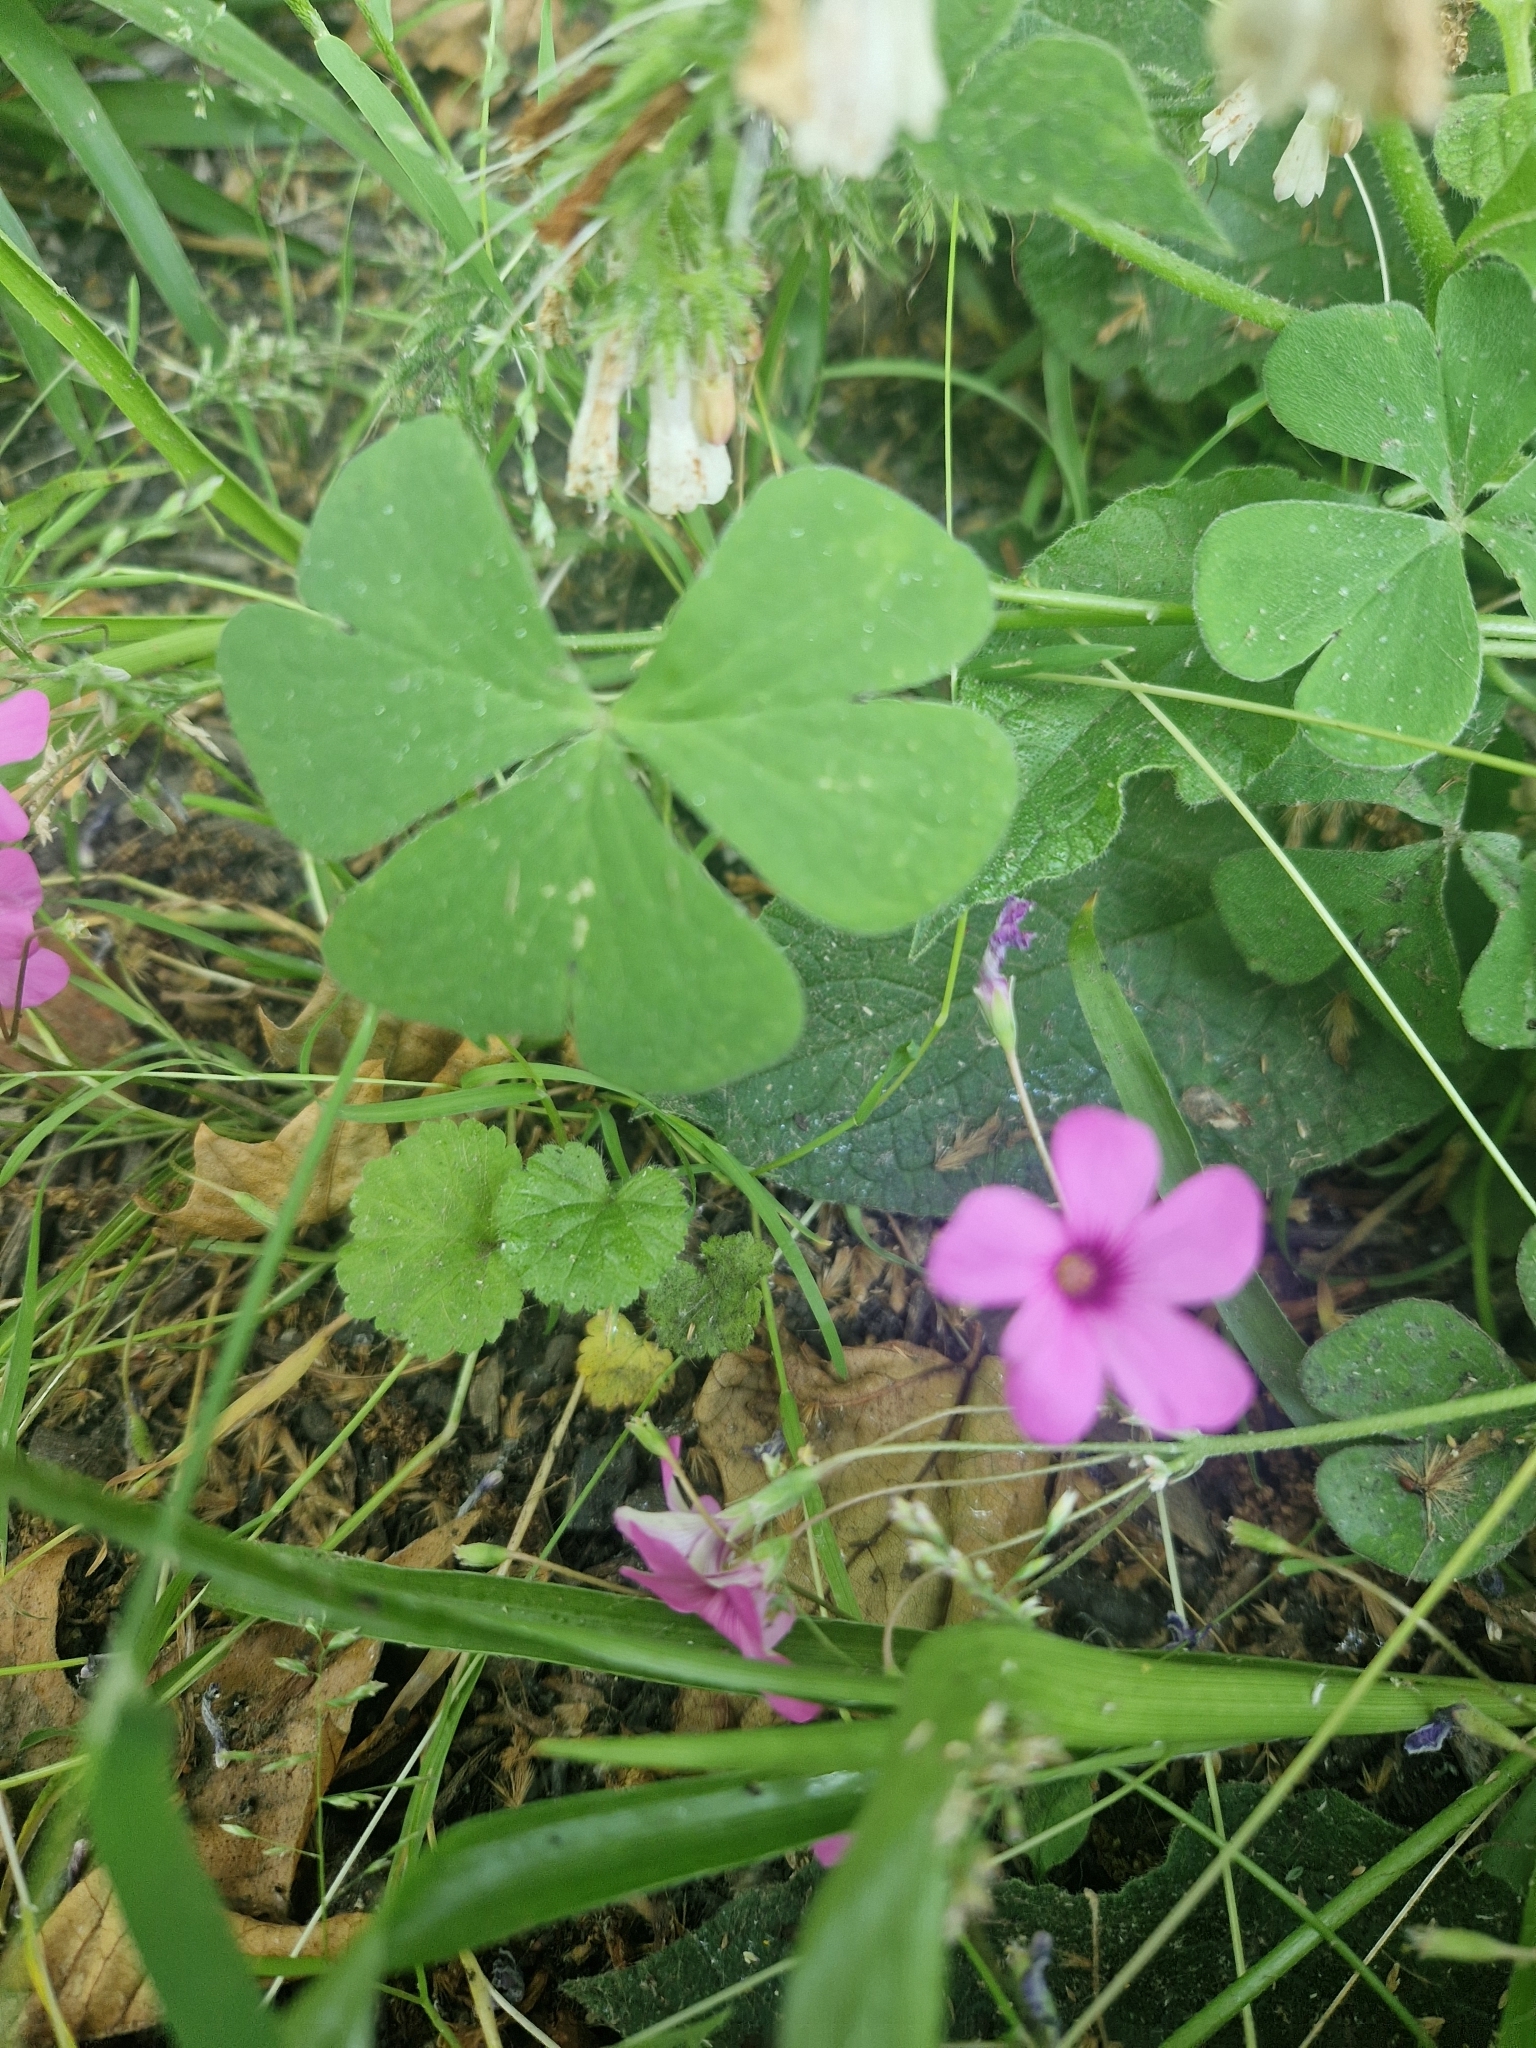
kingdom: Plantae
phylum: Tracheophyta
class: Magnoliopsida
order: Oxalidales
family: Oxalidaceae
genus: Oxalis
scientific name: Oxalis articulata
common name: Pink-sorrel
